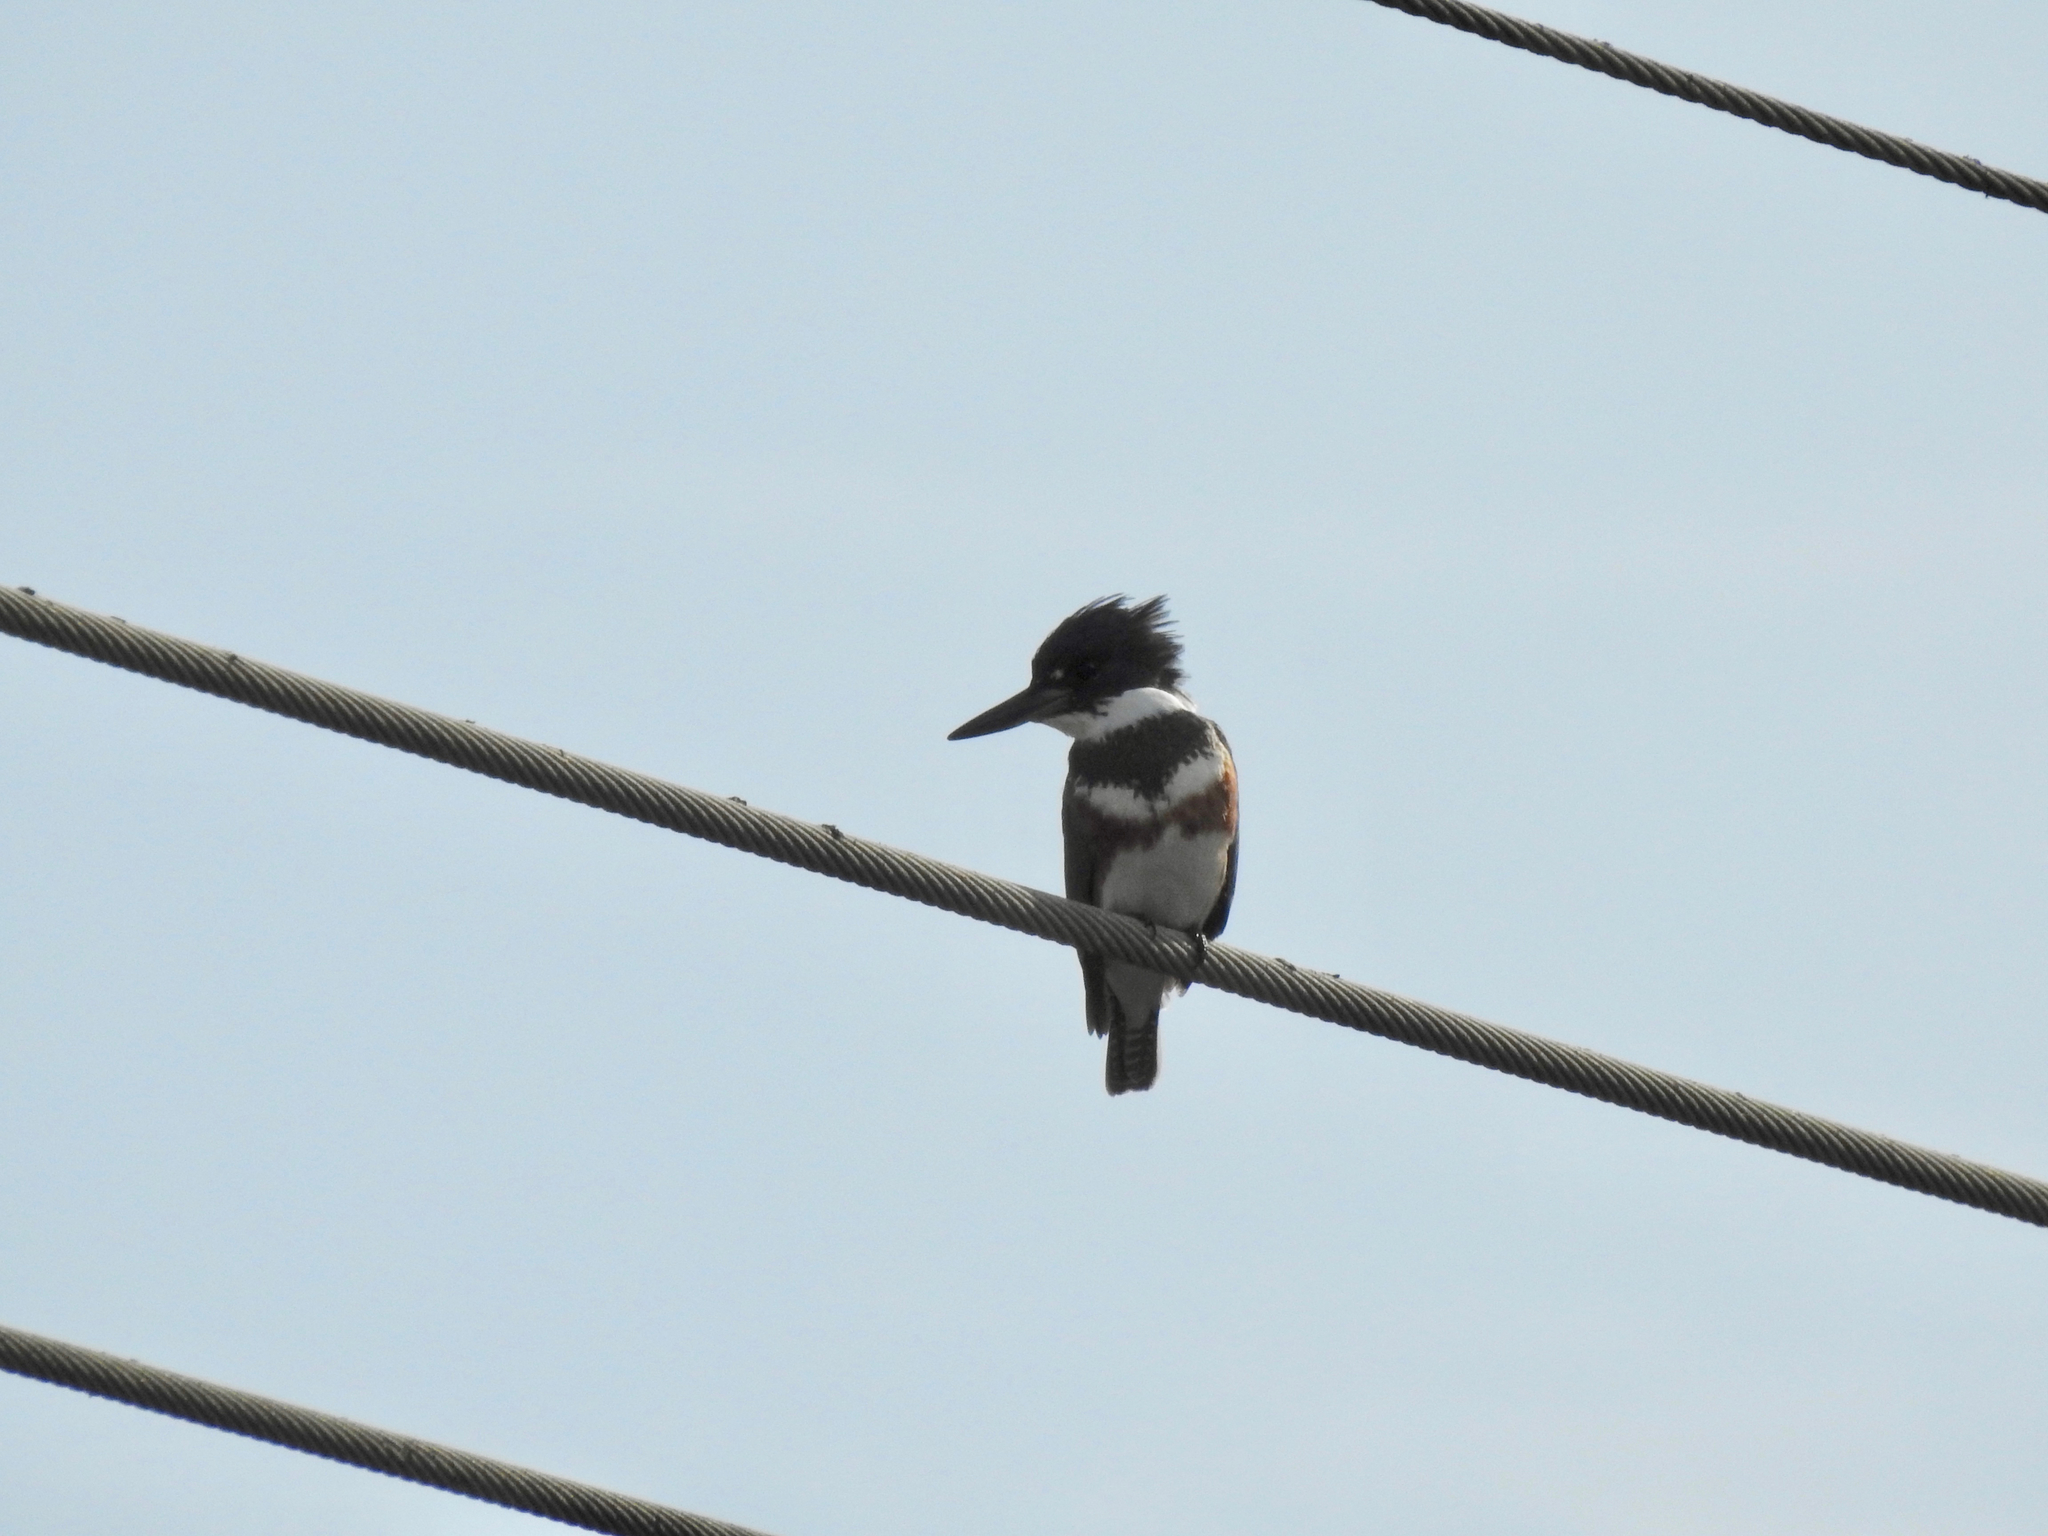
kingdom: Animalia
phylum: Chordata
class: Aves
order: Coraciiformes
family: Alcedinidae
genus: Megaceryle
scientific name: Megaceryle alcyon
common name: Belted kingfisher
